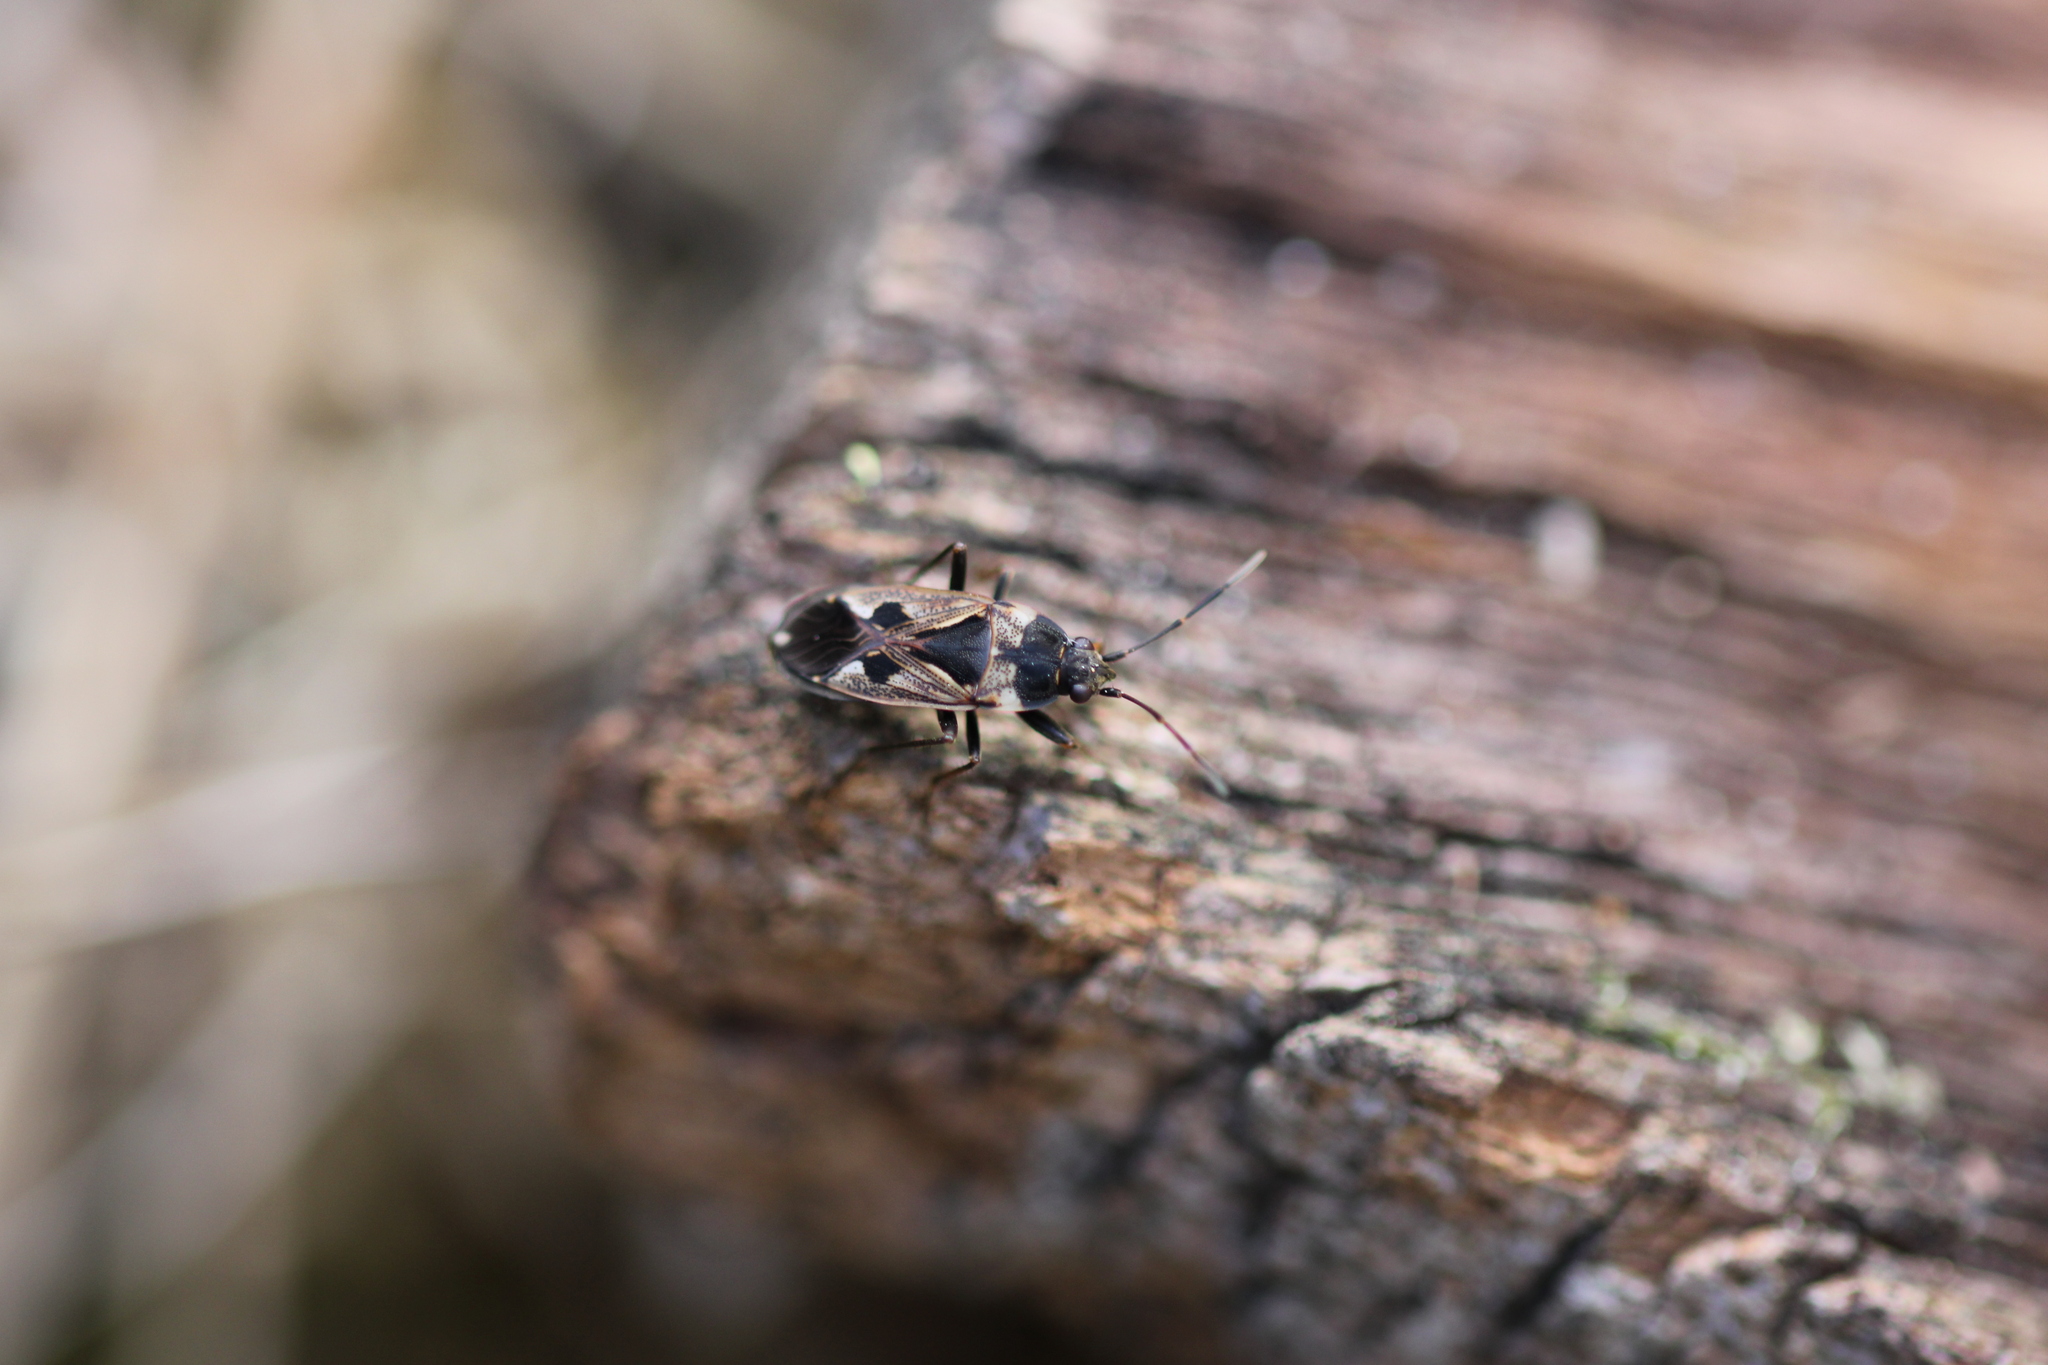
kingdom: Animalia
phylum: Arthropoda
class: Insecta
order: Hemiptera
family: Rhyparochromidae
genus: Rhyparochromus
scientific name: Rhyparochromus vulgaris
